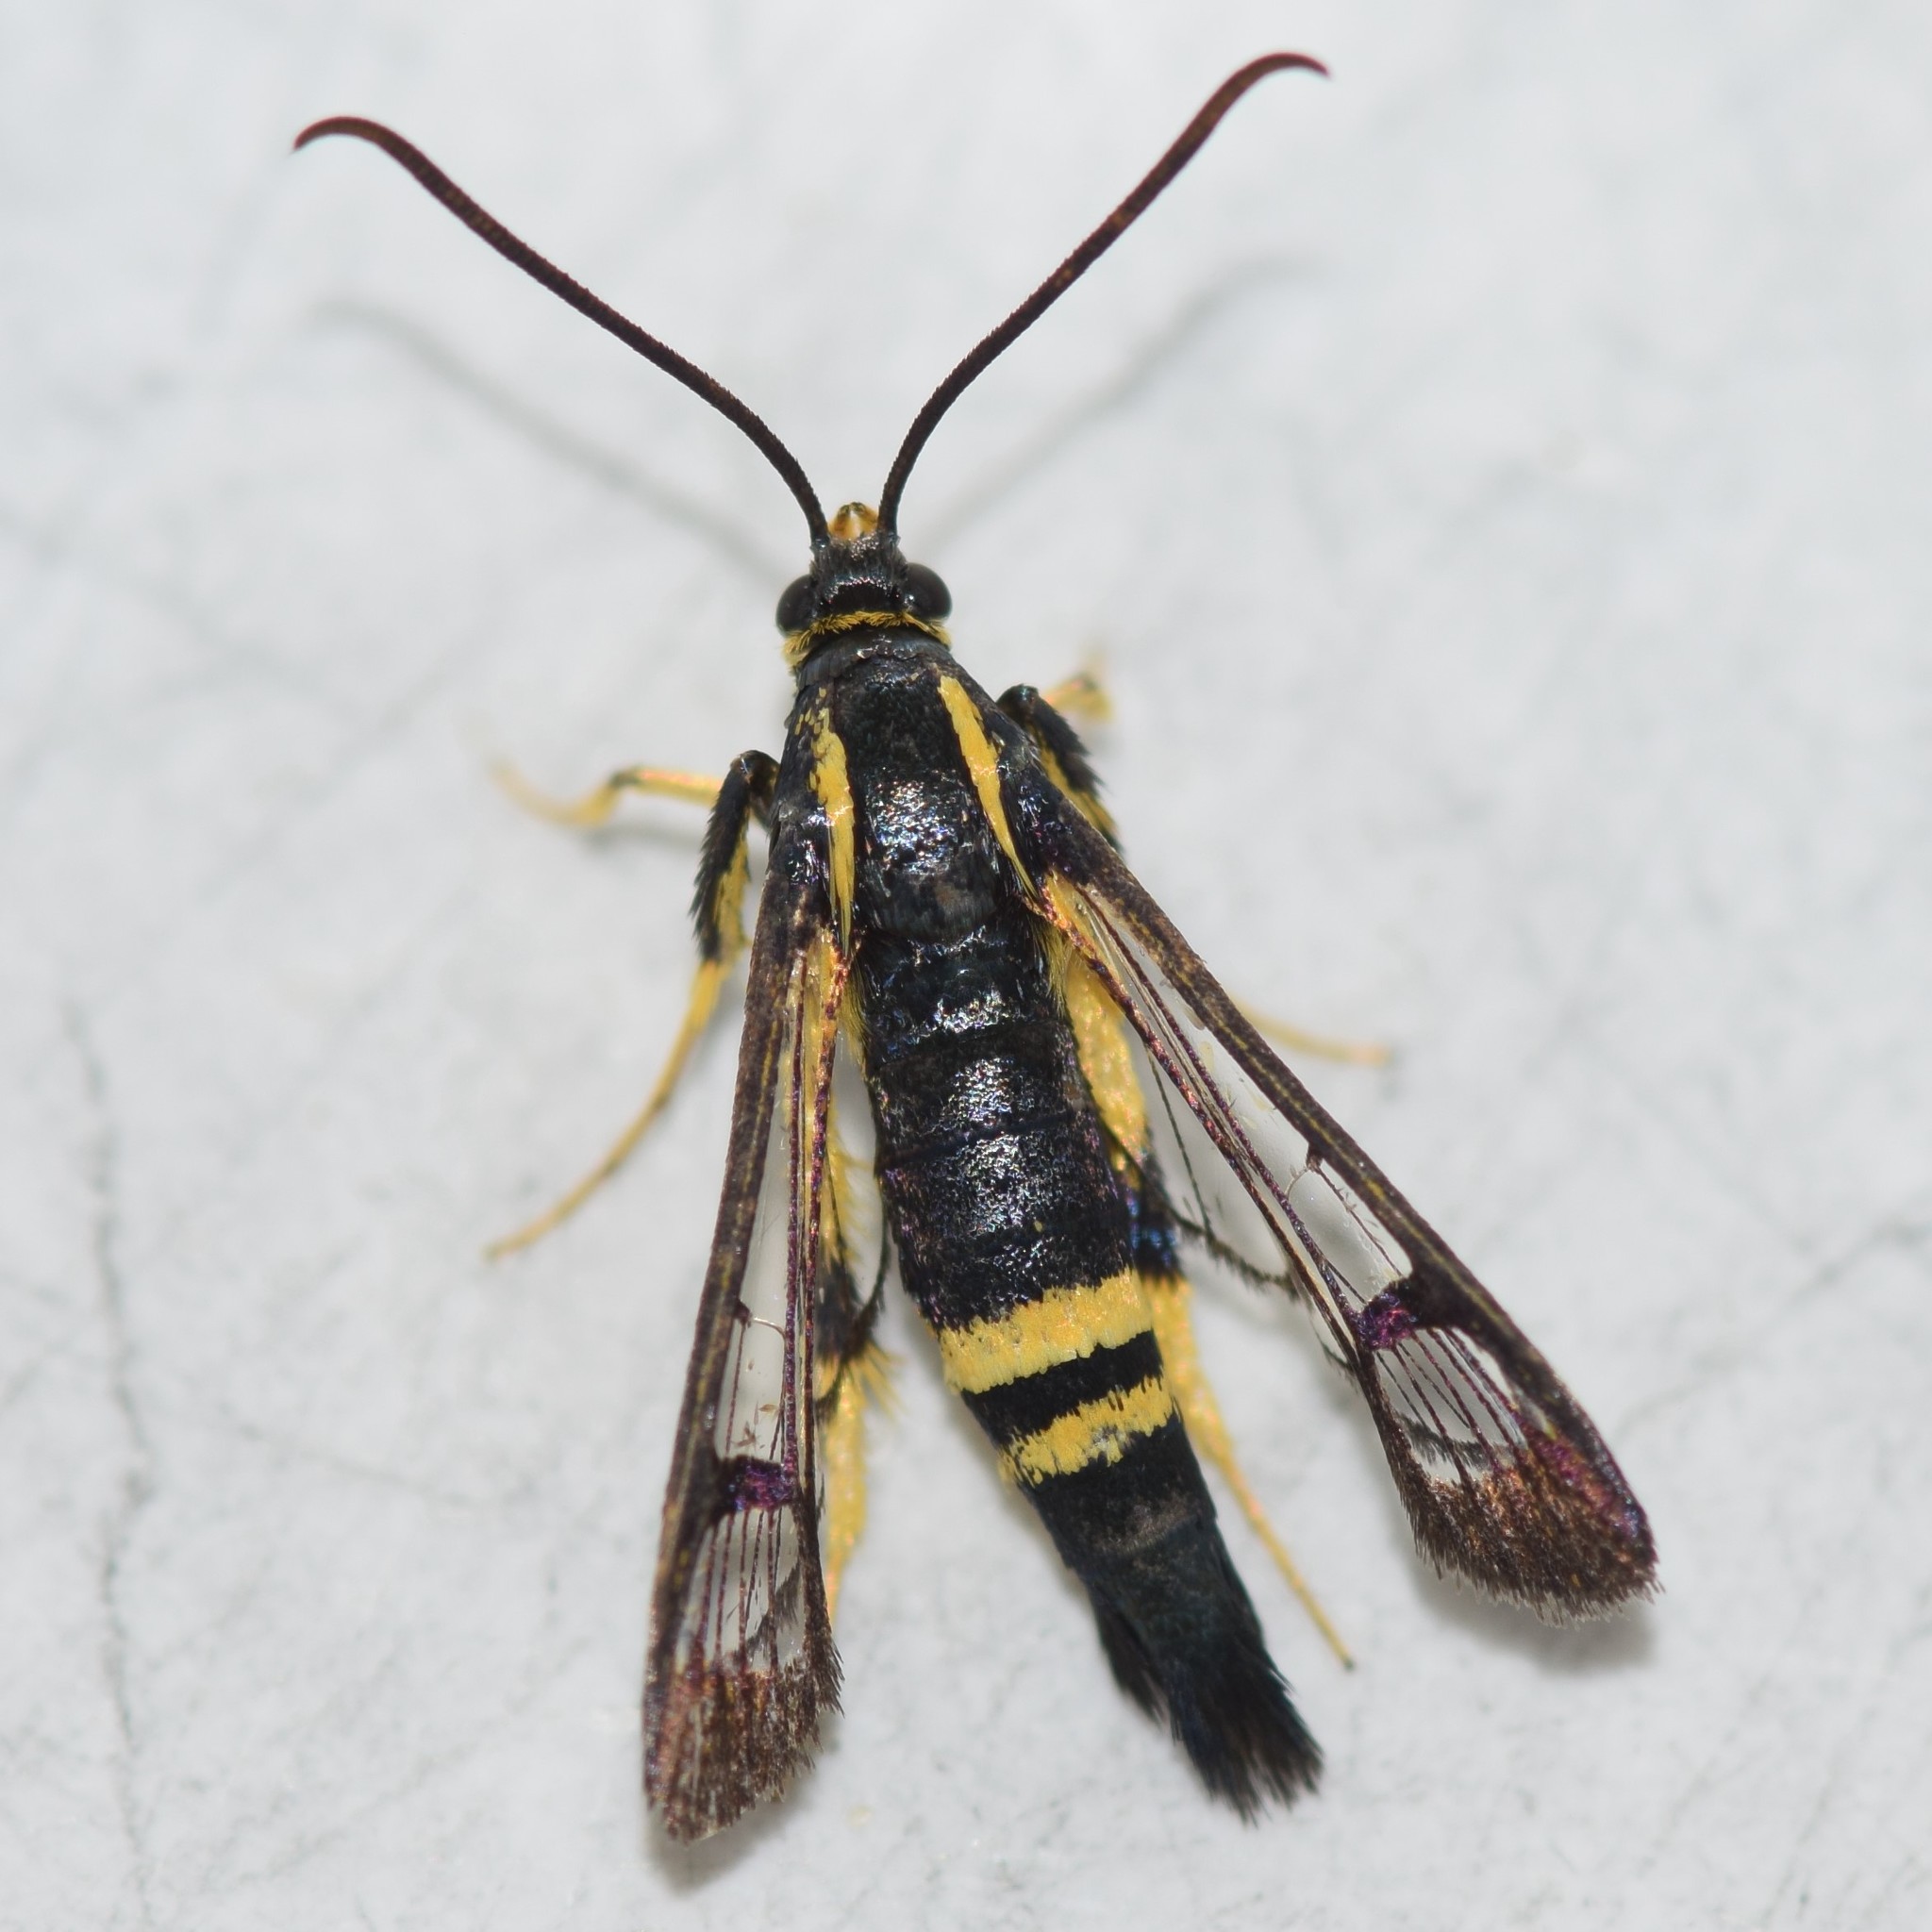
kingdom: Animalia
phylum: Arthropoda
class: Insecta
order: Lepidoptera
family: Sesiidae
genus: Synanthedon
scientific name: Synanthedon kathyae
